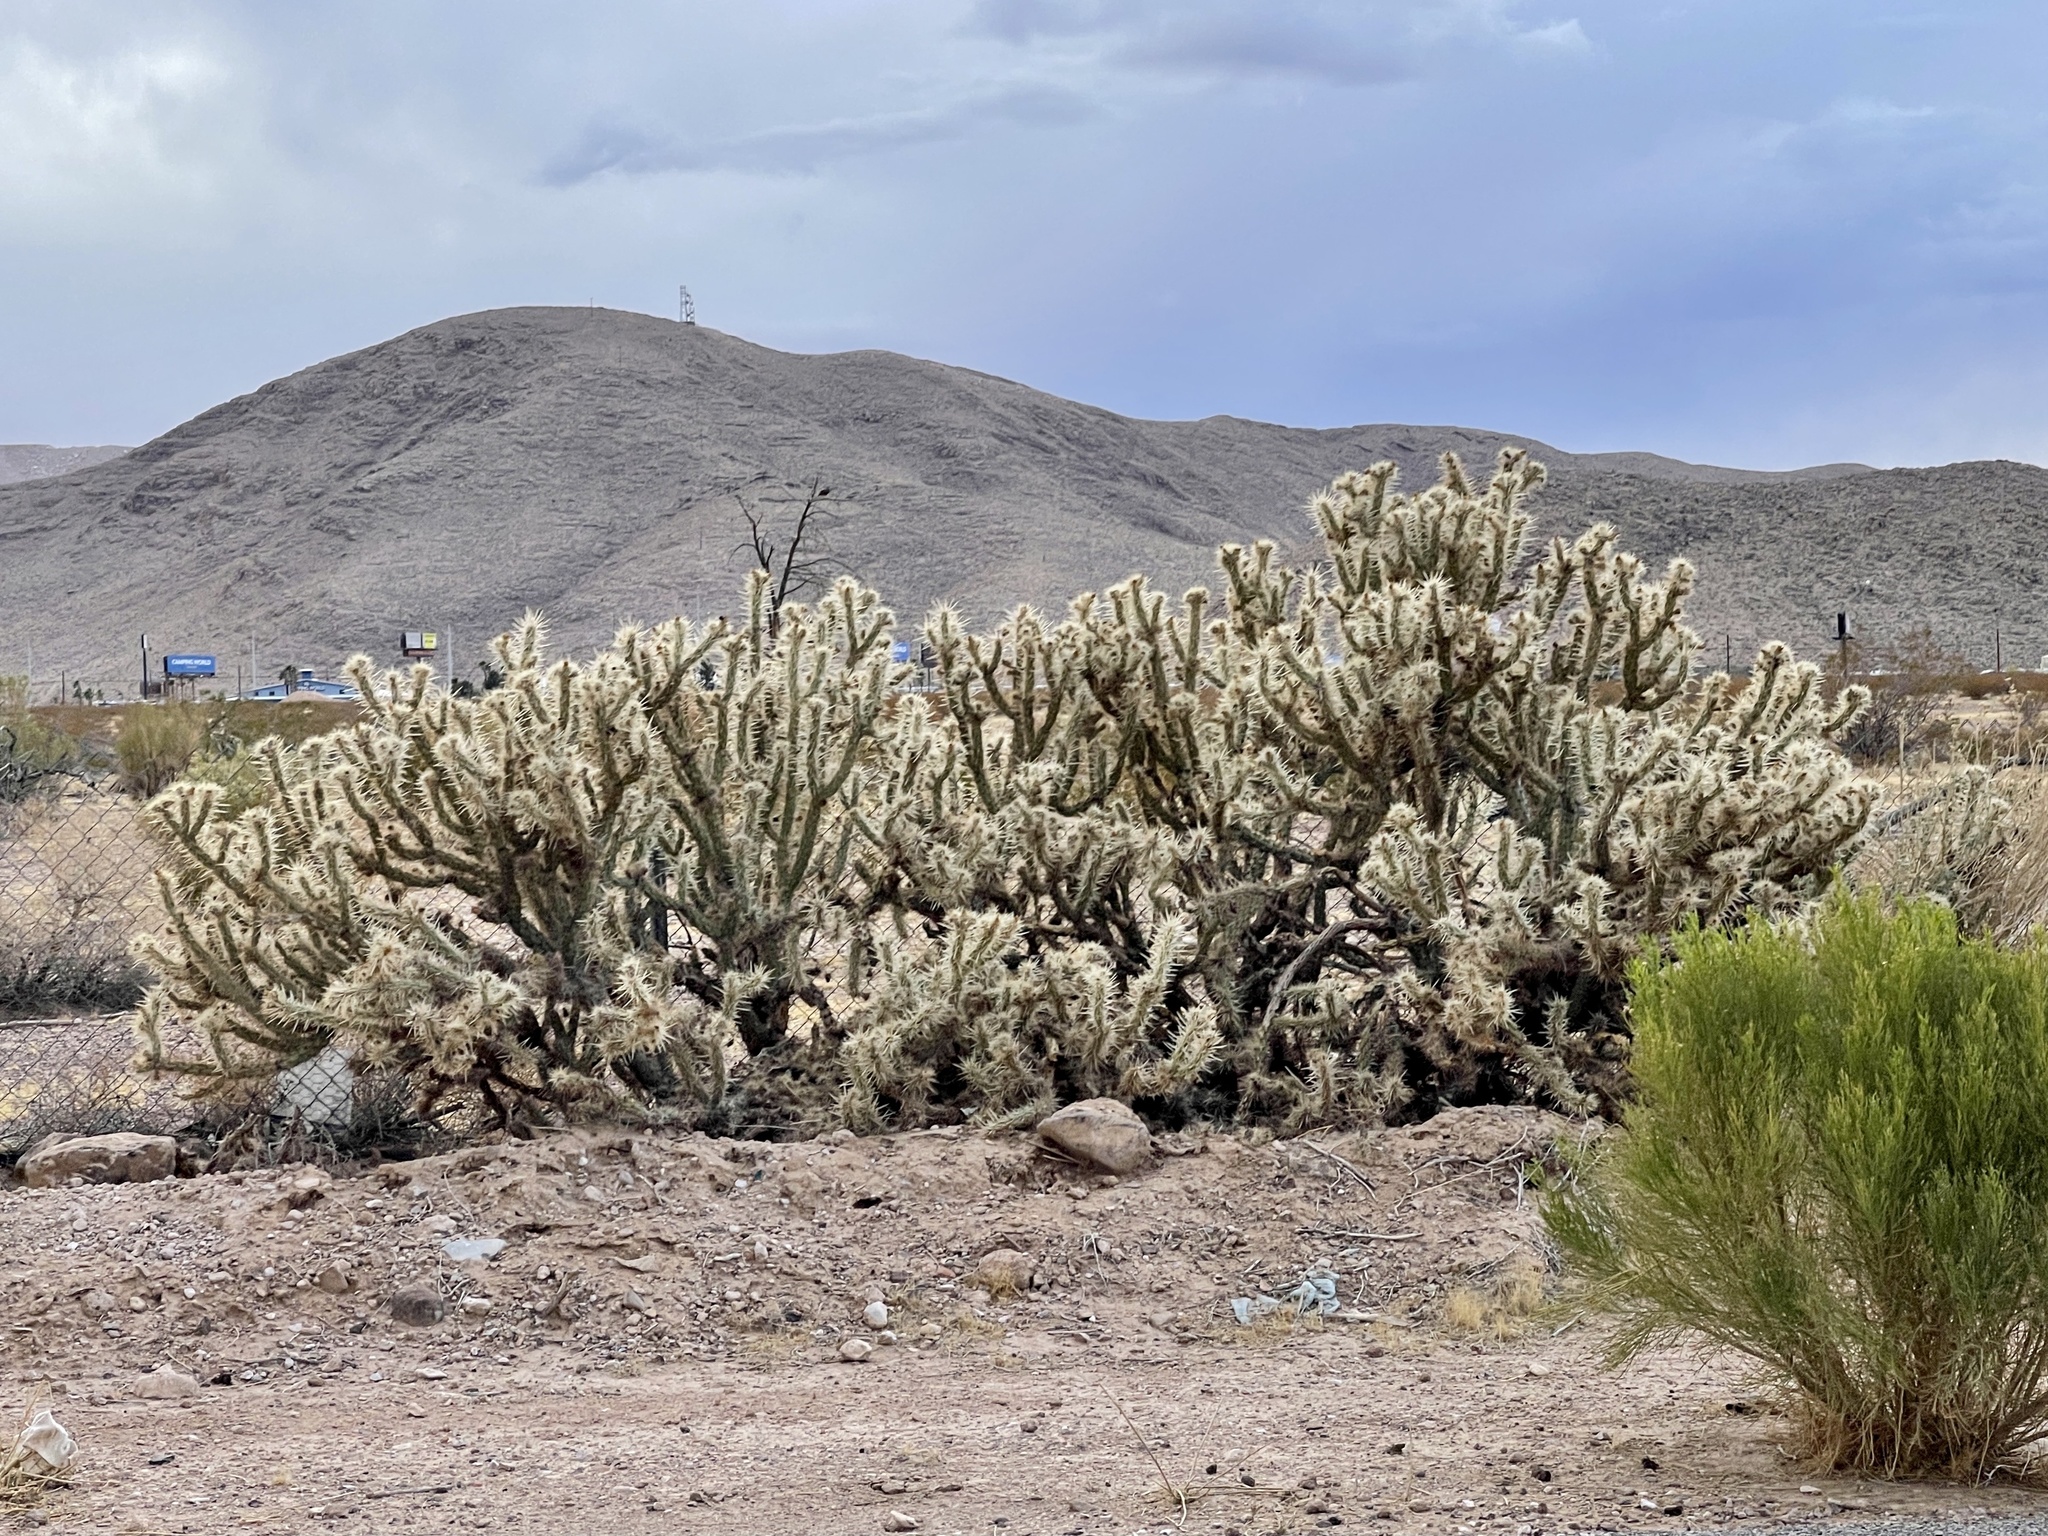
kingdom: Plantae
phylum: Tracheophyta
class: Magnoliopsida
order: Caryophyllales
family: Cactaceae
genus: Cylindropuntia
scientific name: Cylindropuntia acanthocarpa
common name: Buckhorn cholla
